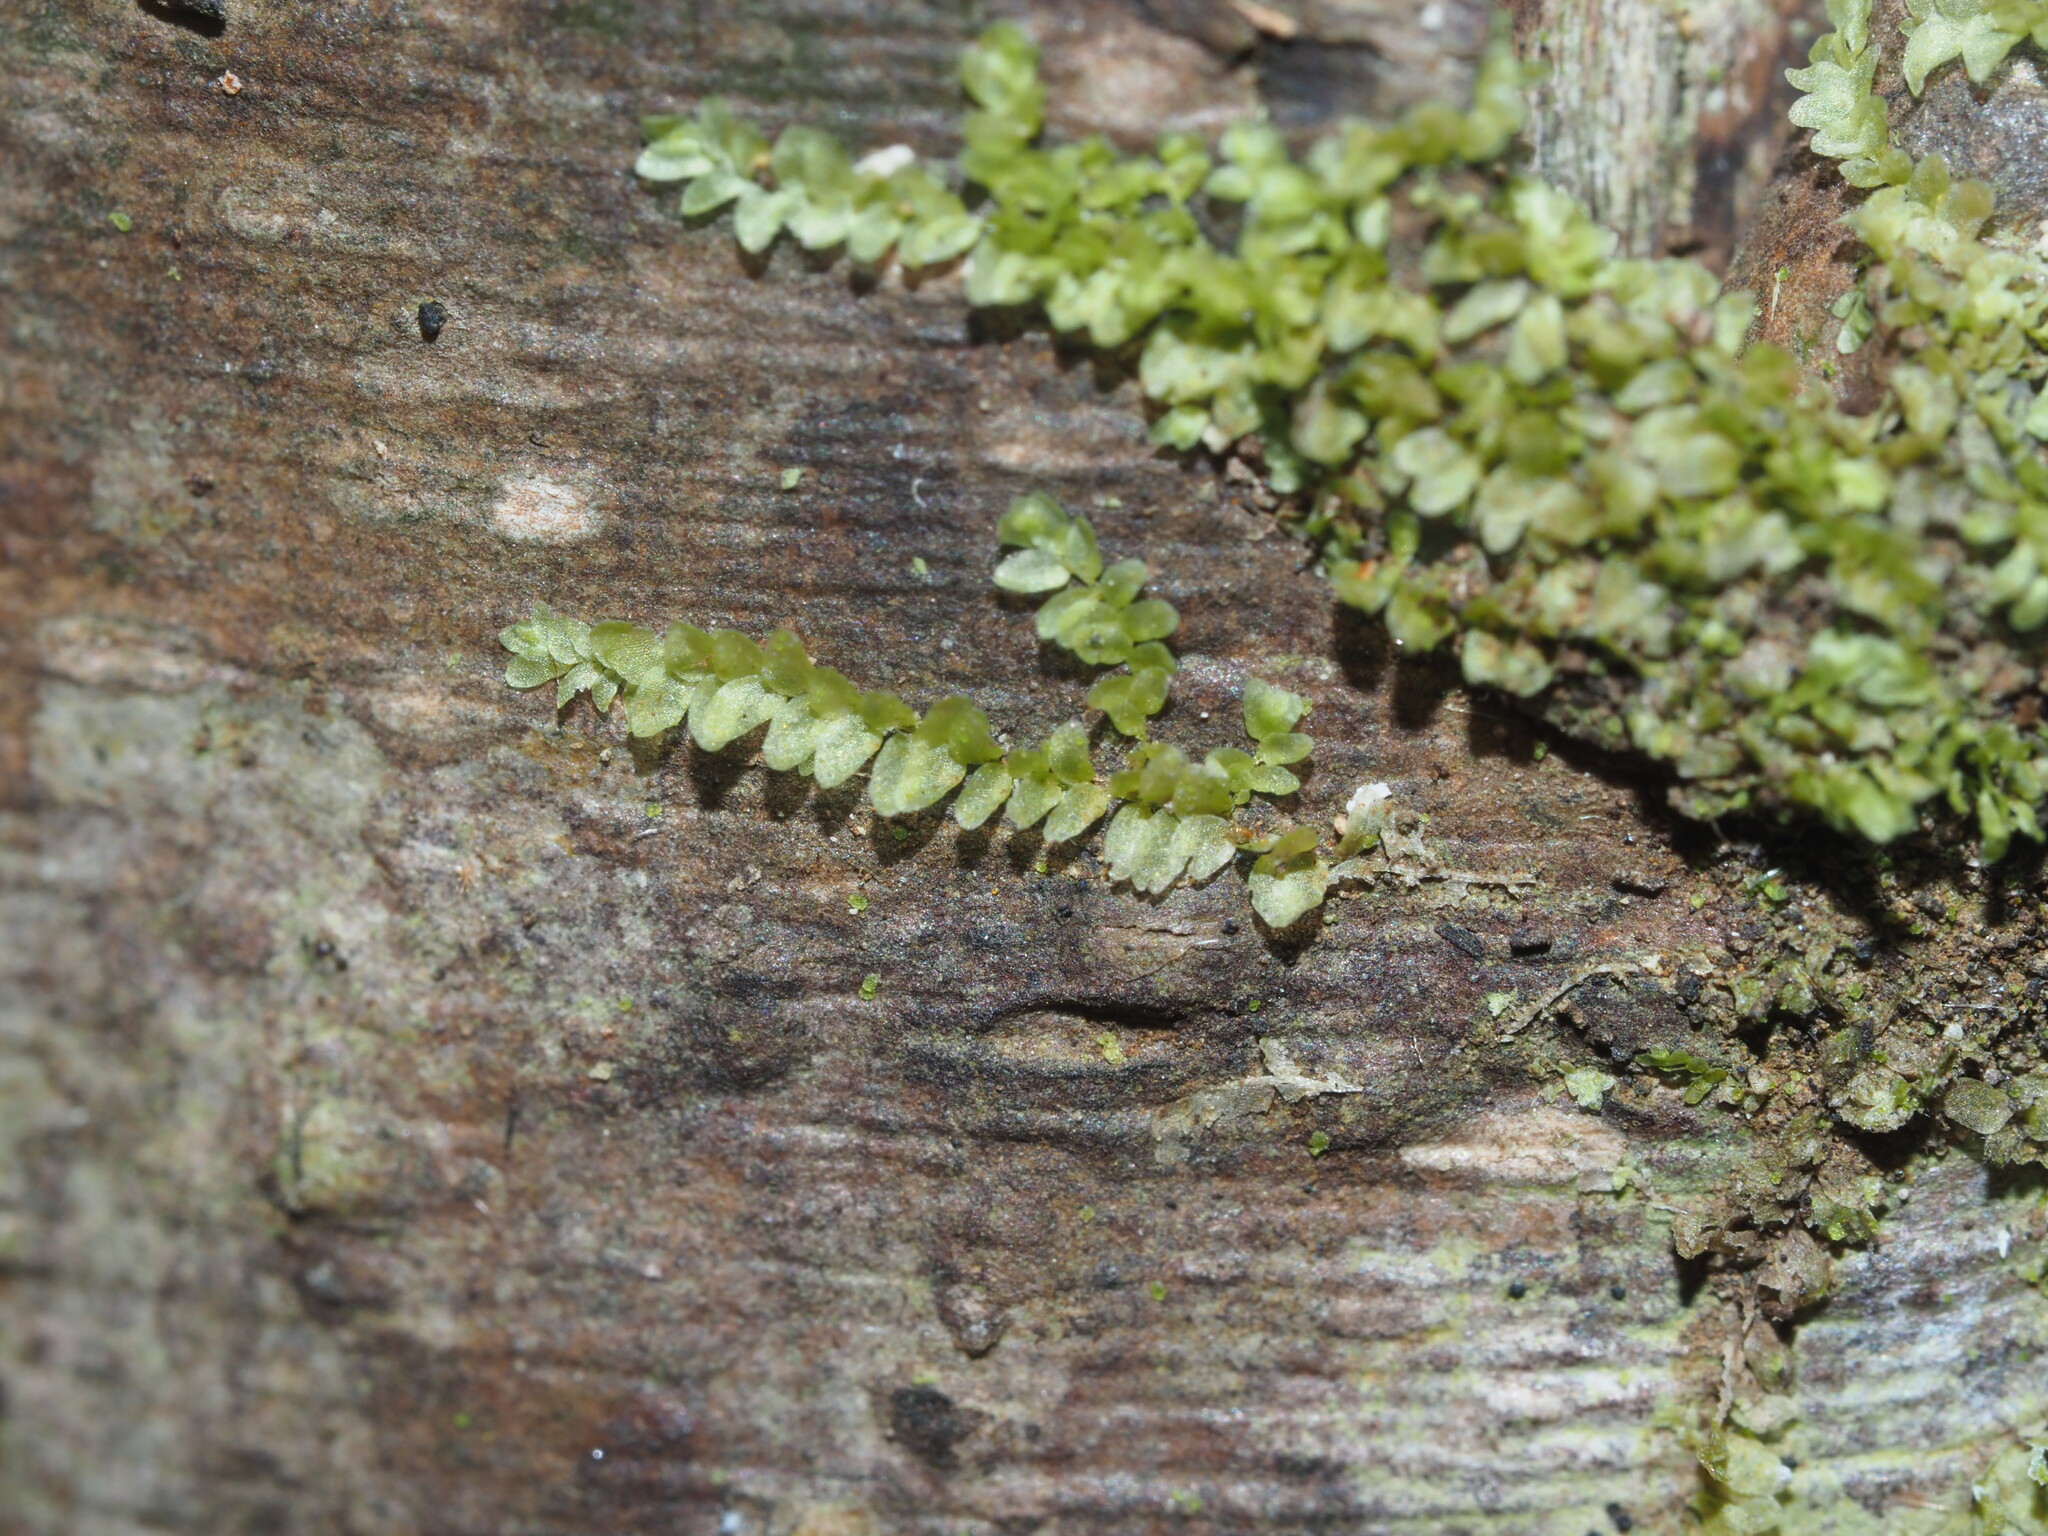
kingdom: Plantae
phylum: Marchantiophyta
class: Jungermanniopsida
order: Porellales
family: Lejeuneaceae
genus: Cololejeunea
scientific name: Cololejeunea ceatocarpa
